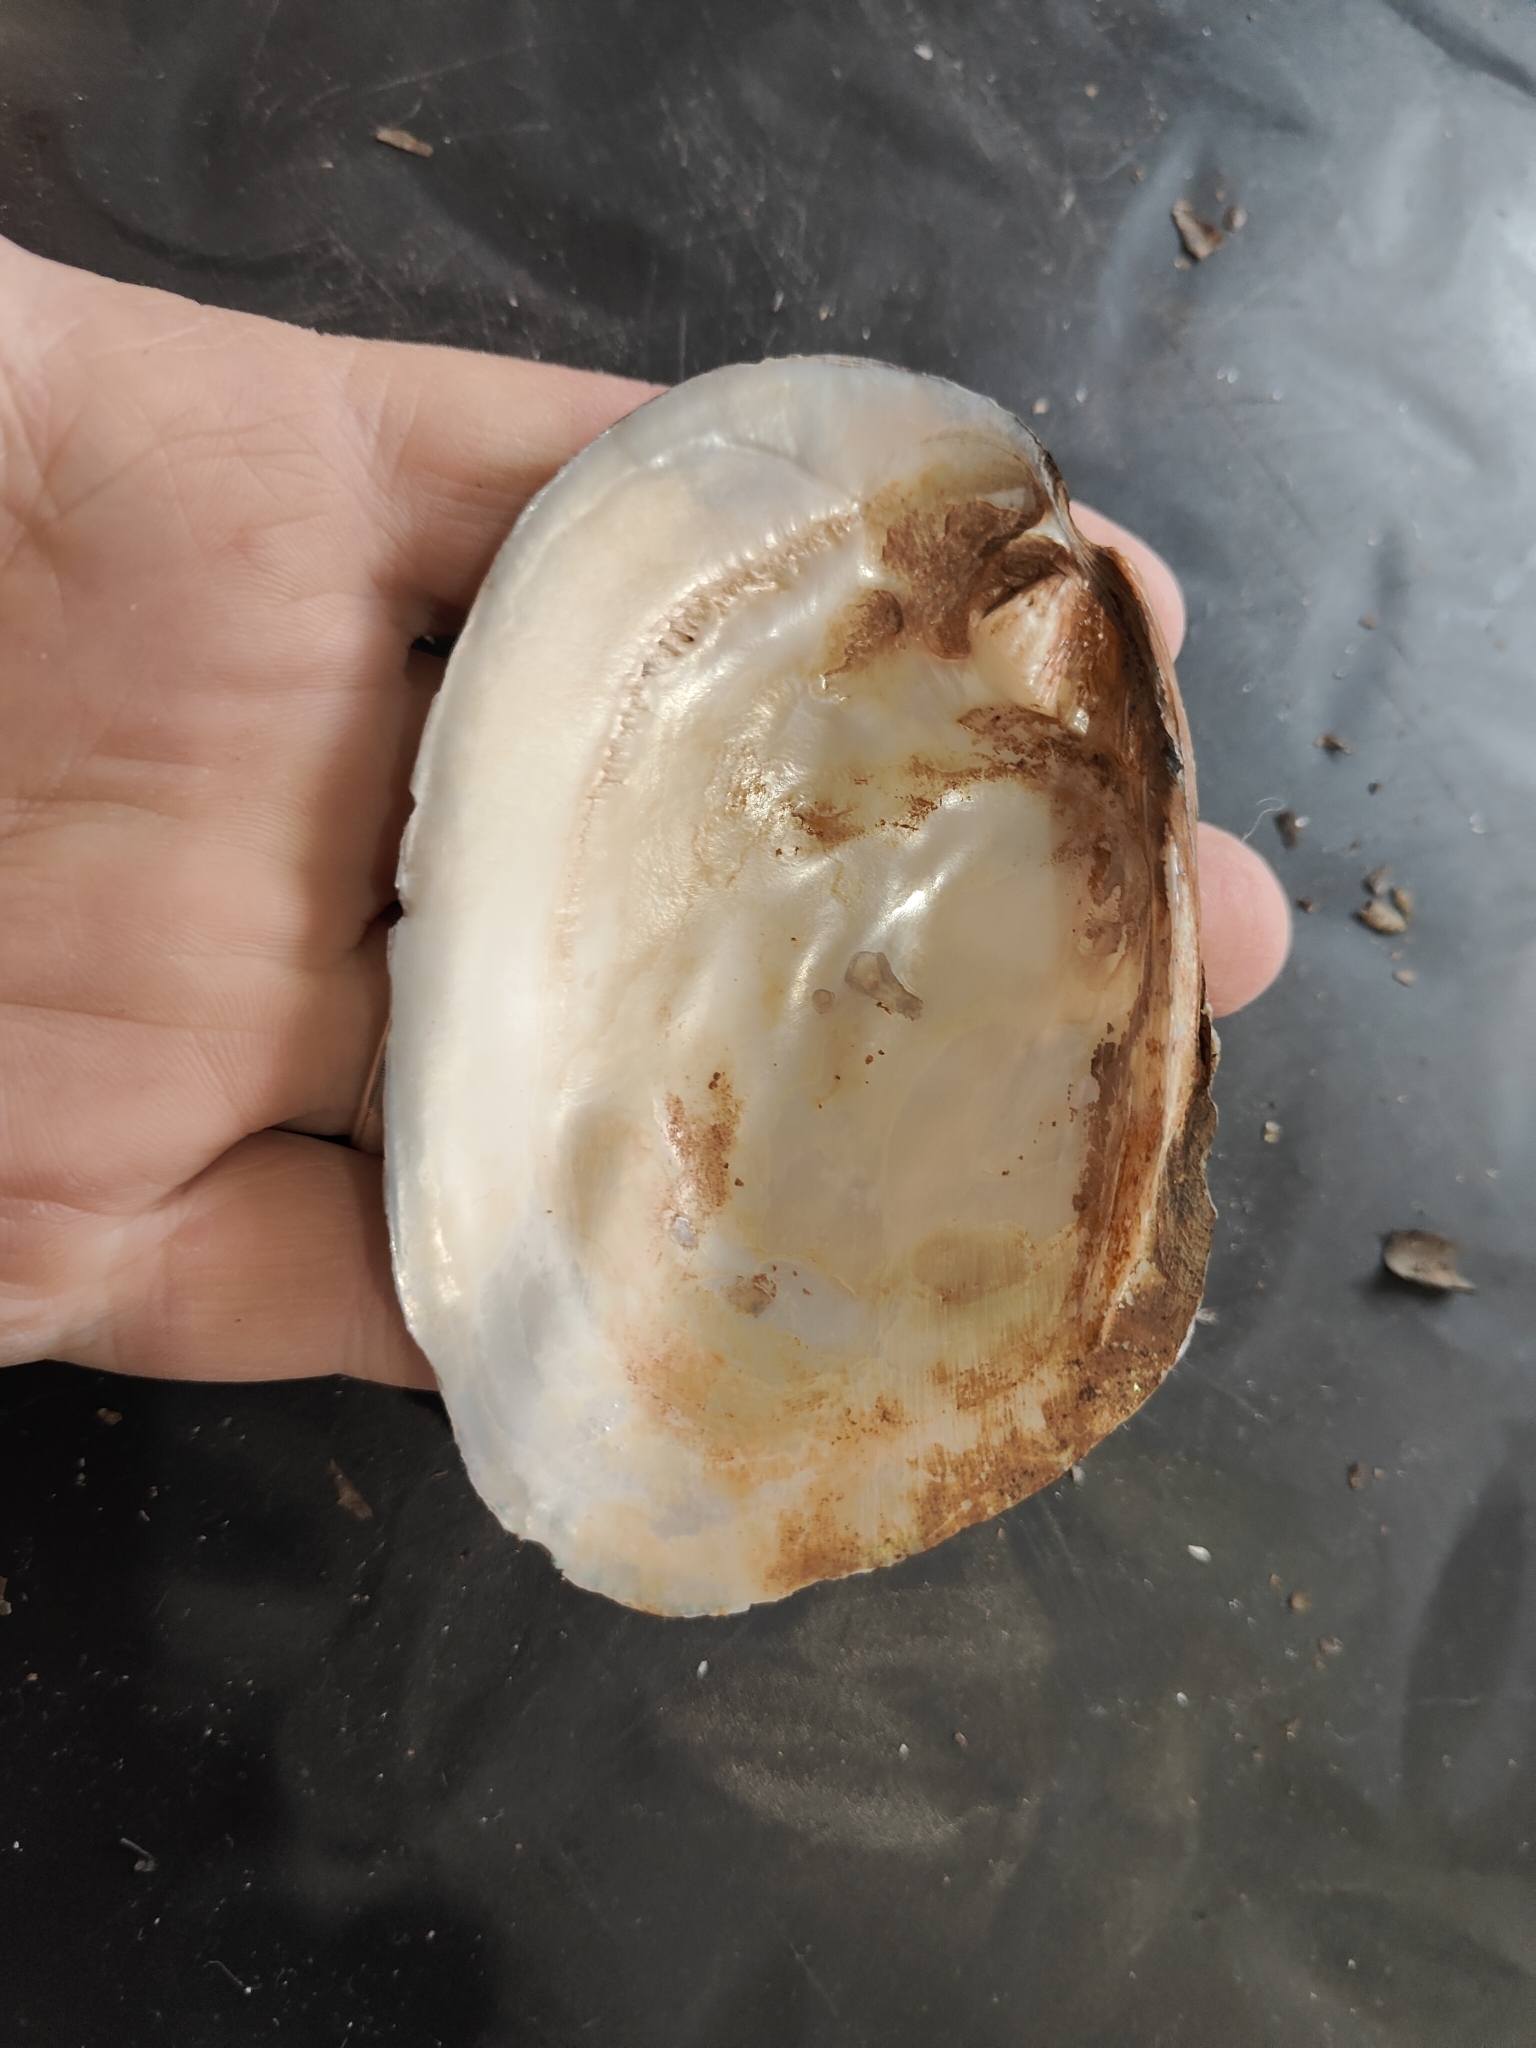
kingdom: Animalia
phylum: Mollusca
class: Bivalvia
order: Unionida
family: Unionidae
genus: Amblema
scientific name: Amblema plicata
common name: Threeridge
